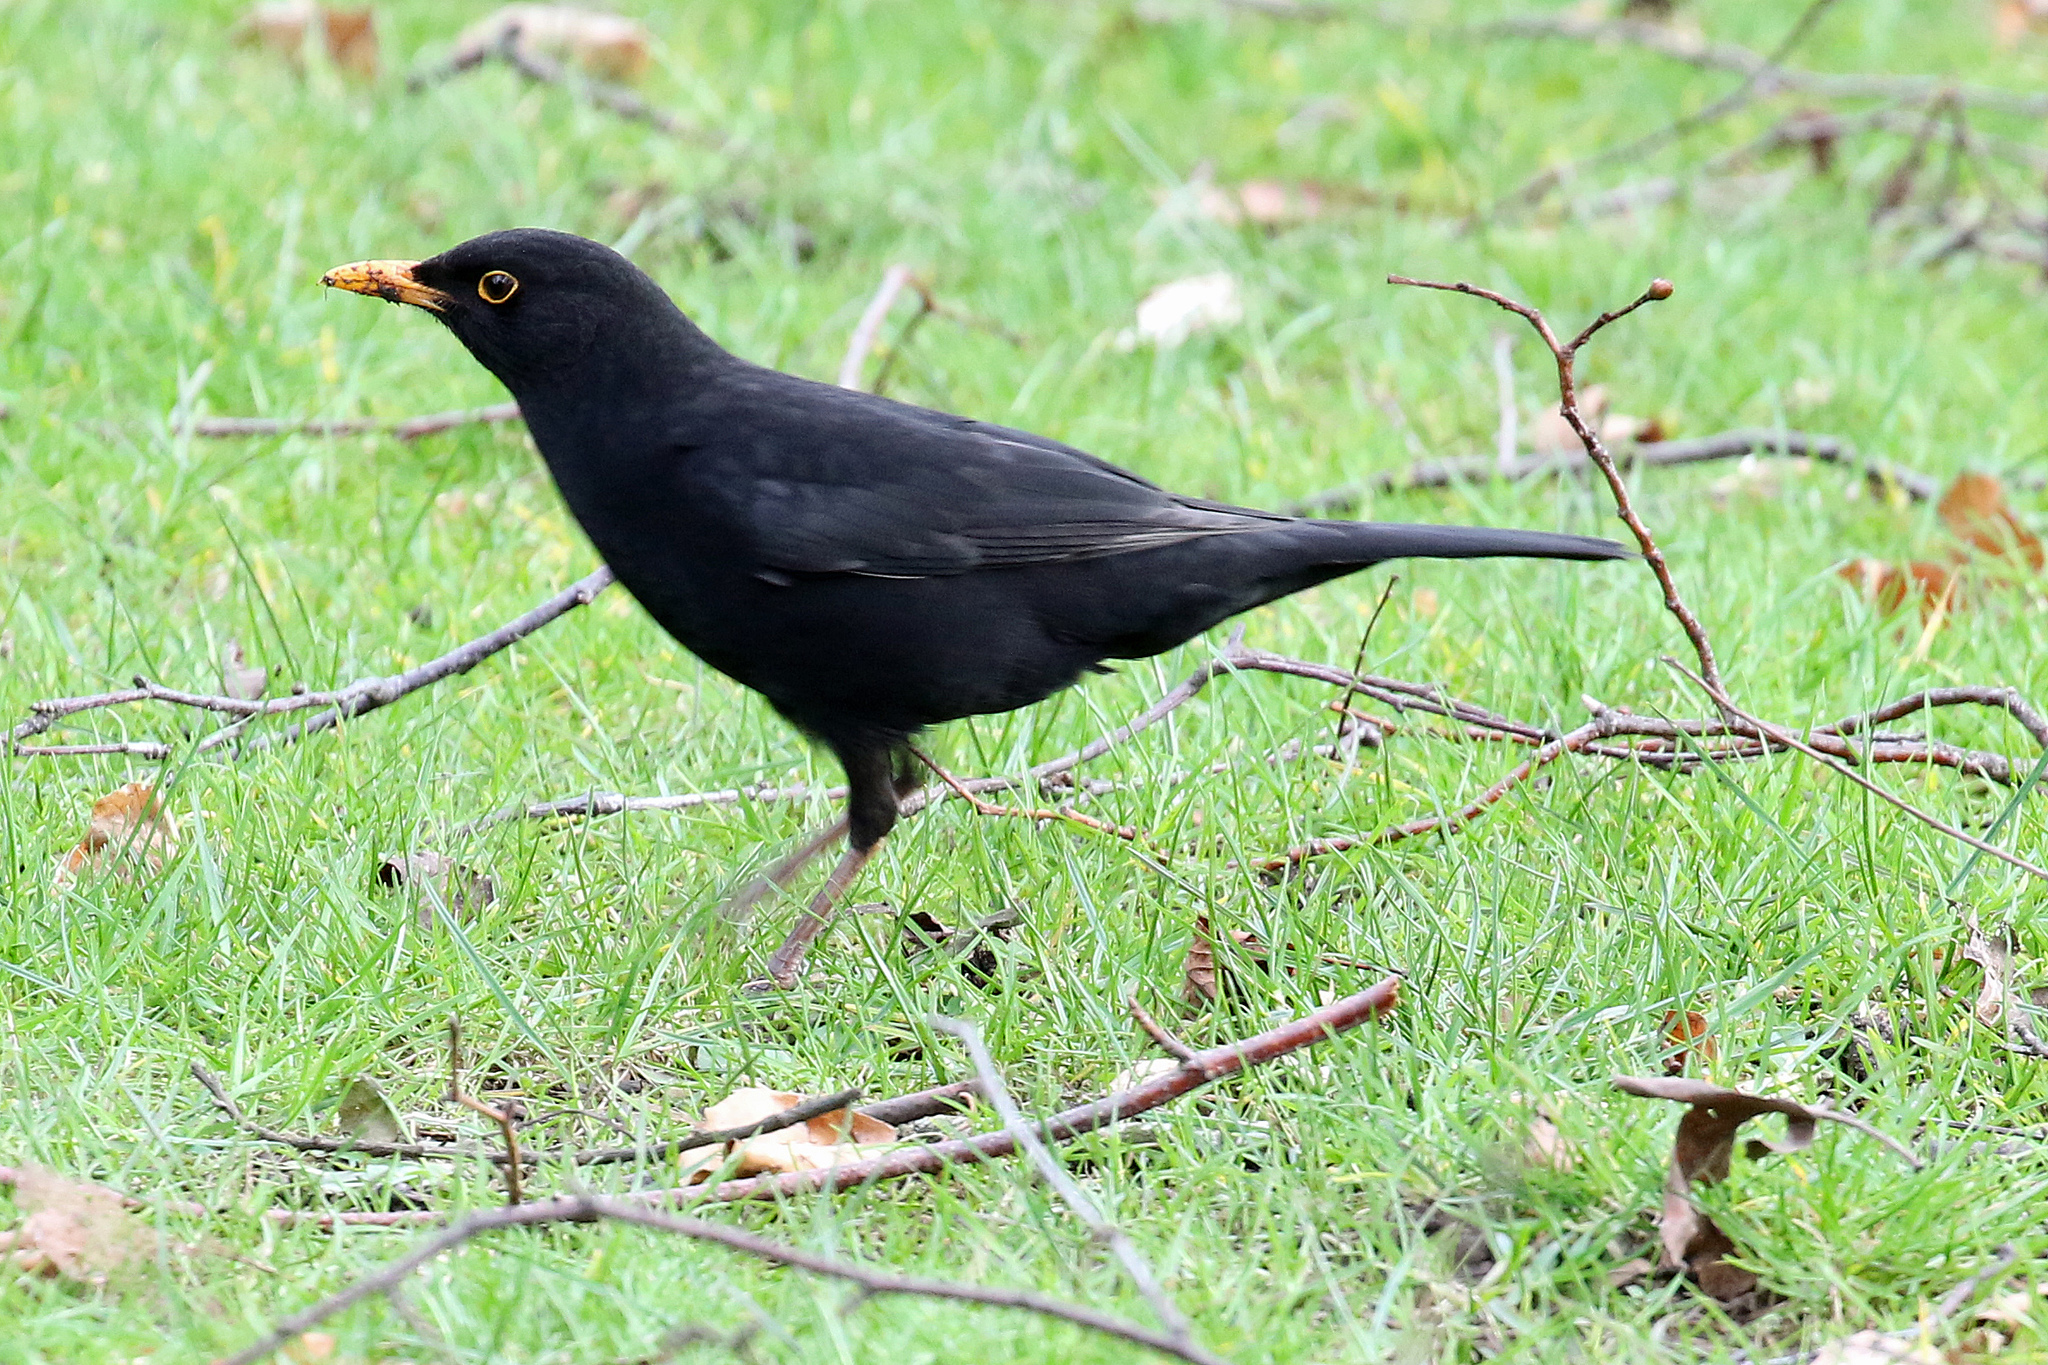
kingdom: Animalia
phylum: Chordata
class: Aves
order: Passeriformes
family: Turdidae
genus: Turdus
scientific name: Turdus merula
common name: Common blackbird
